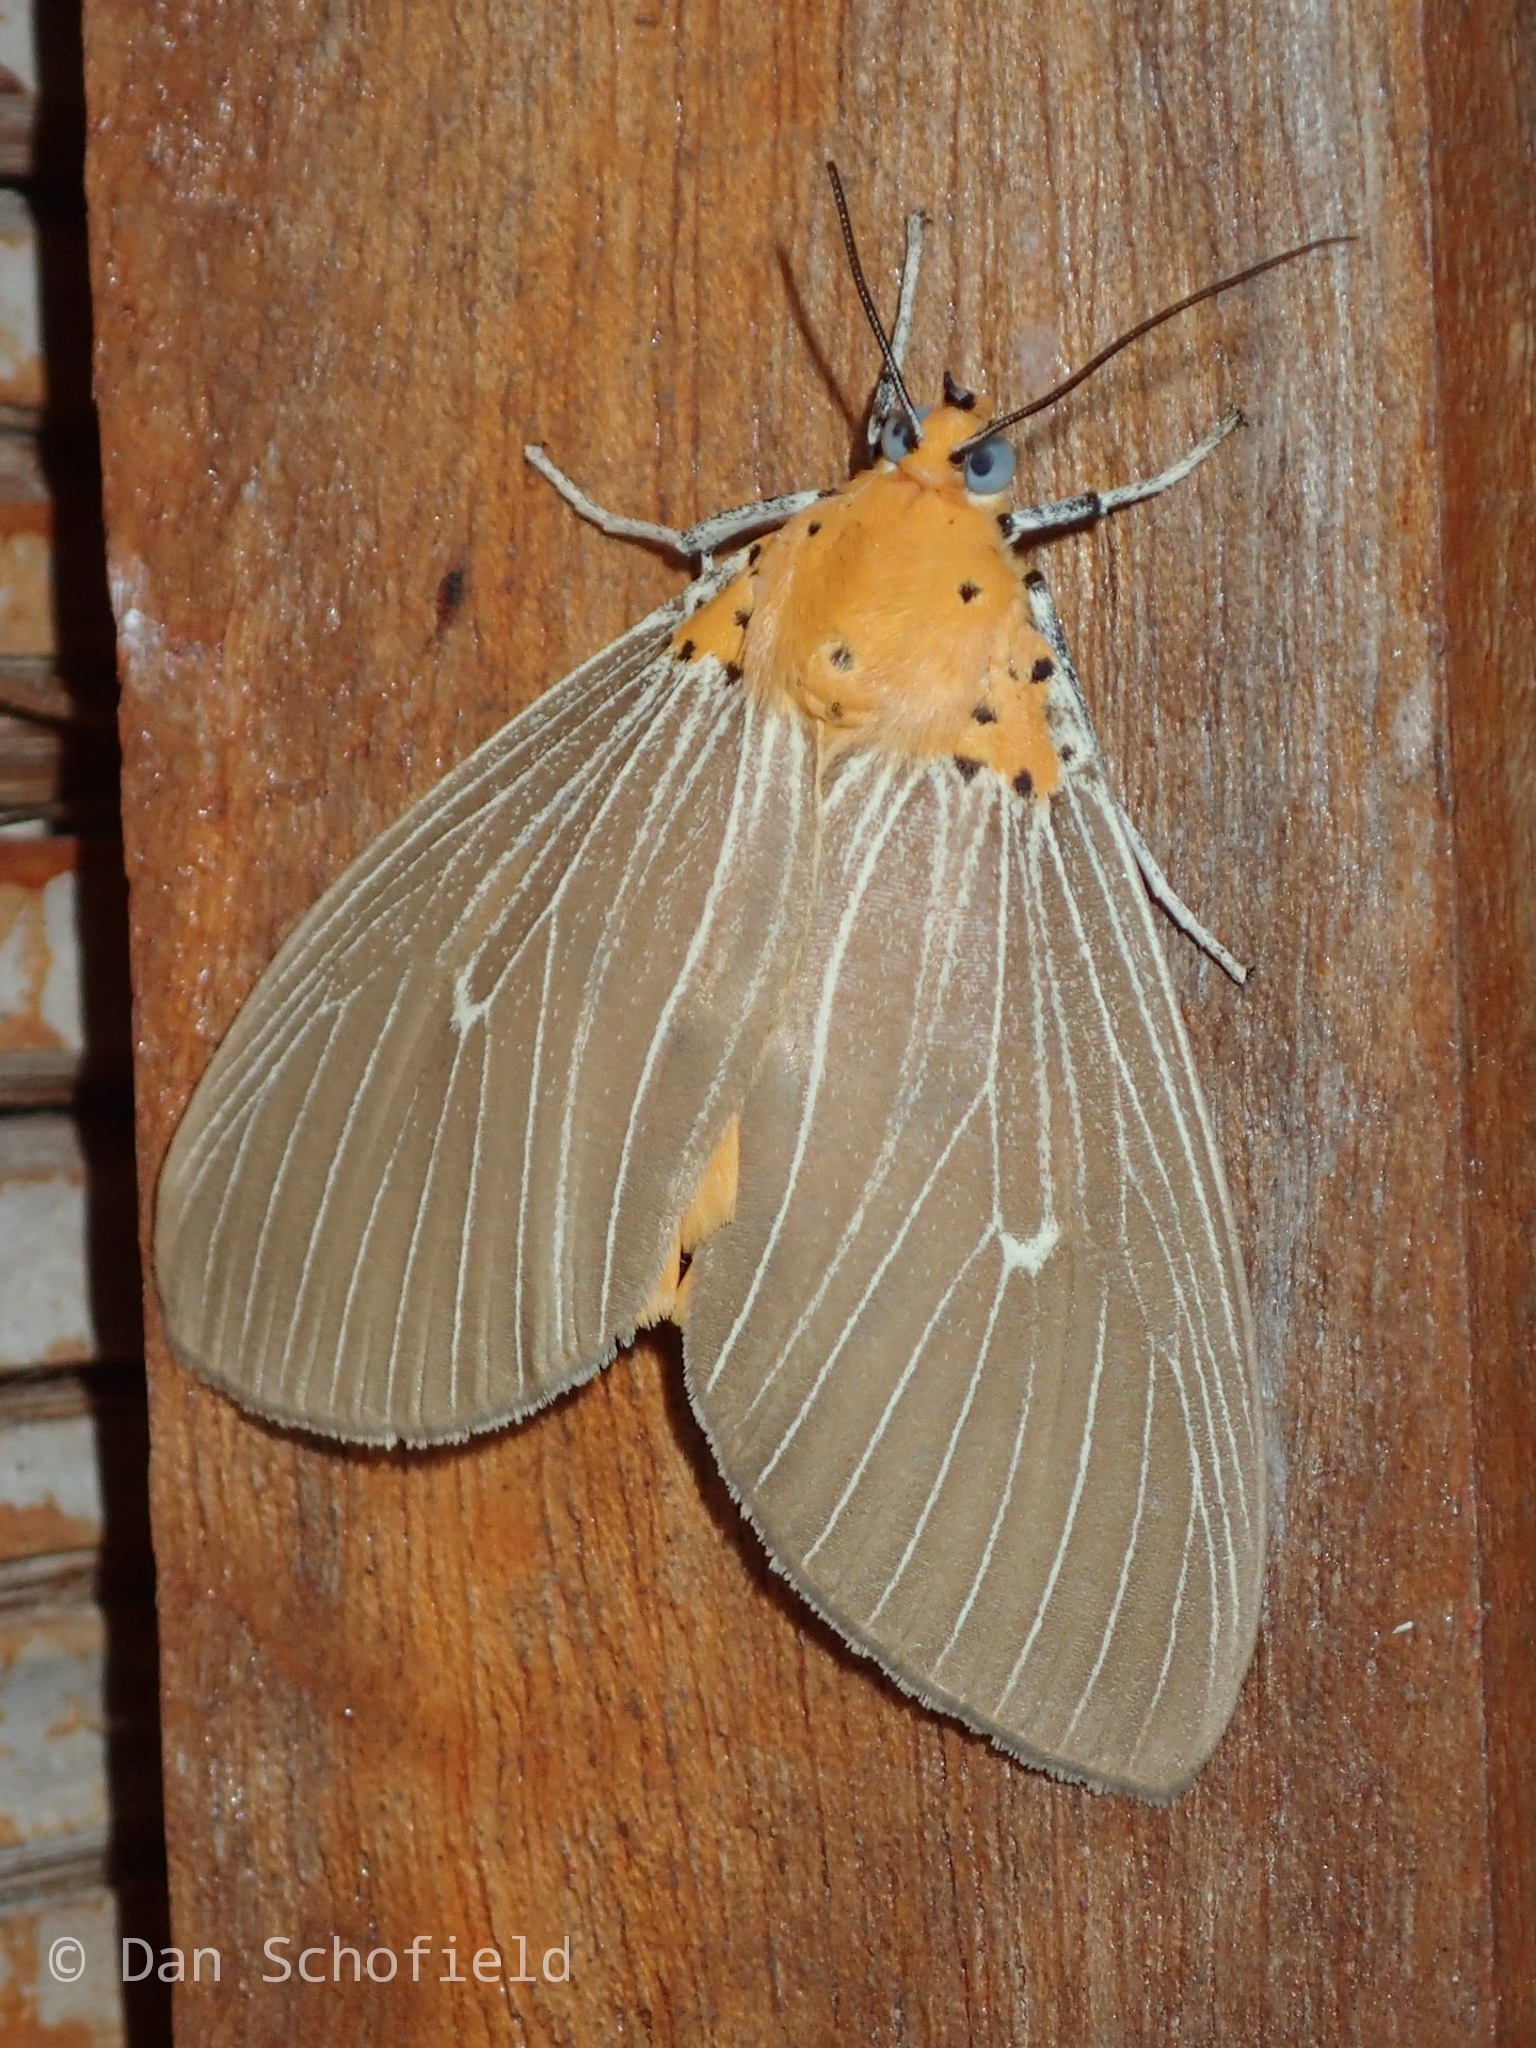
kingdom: Animalia
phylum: Arthropoda
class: Insecta
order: Lepidoptera
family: Erebidae
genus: Asota
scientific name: Asota caricae
